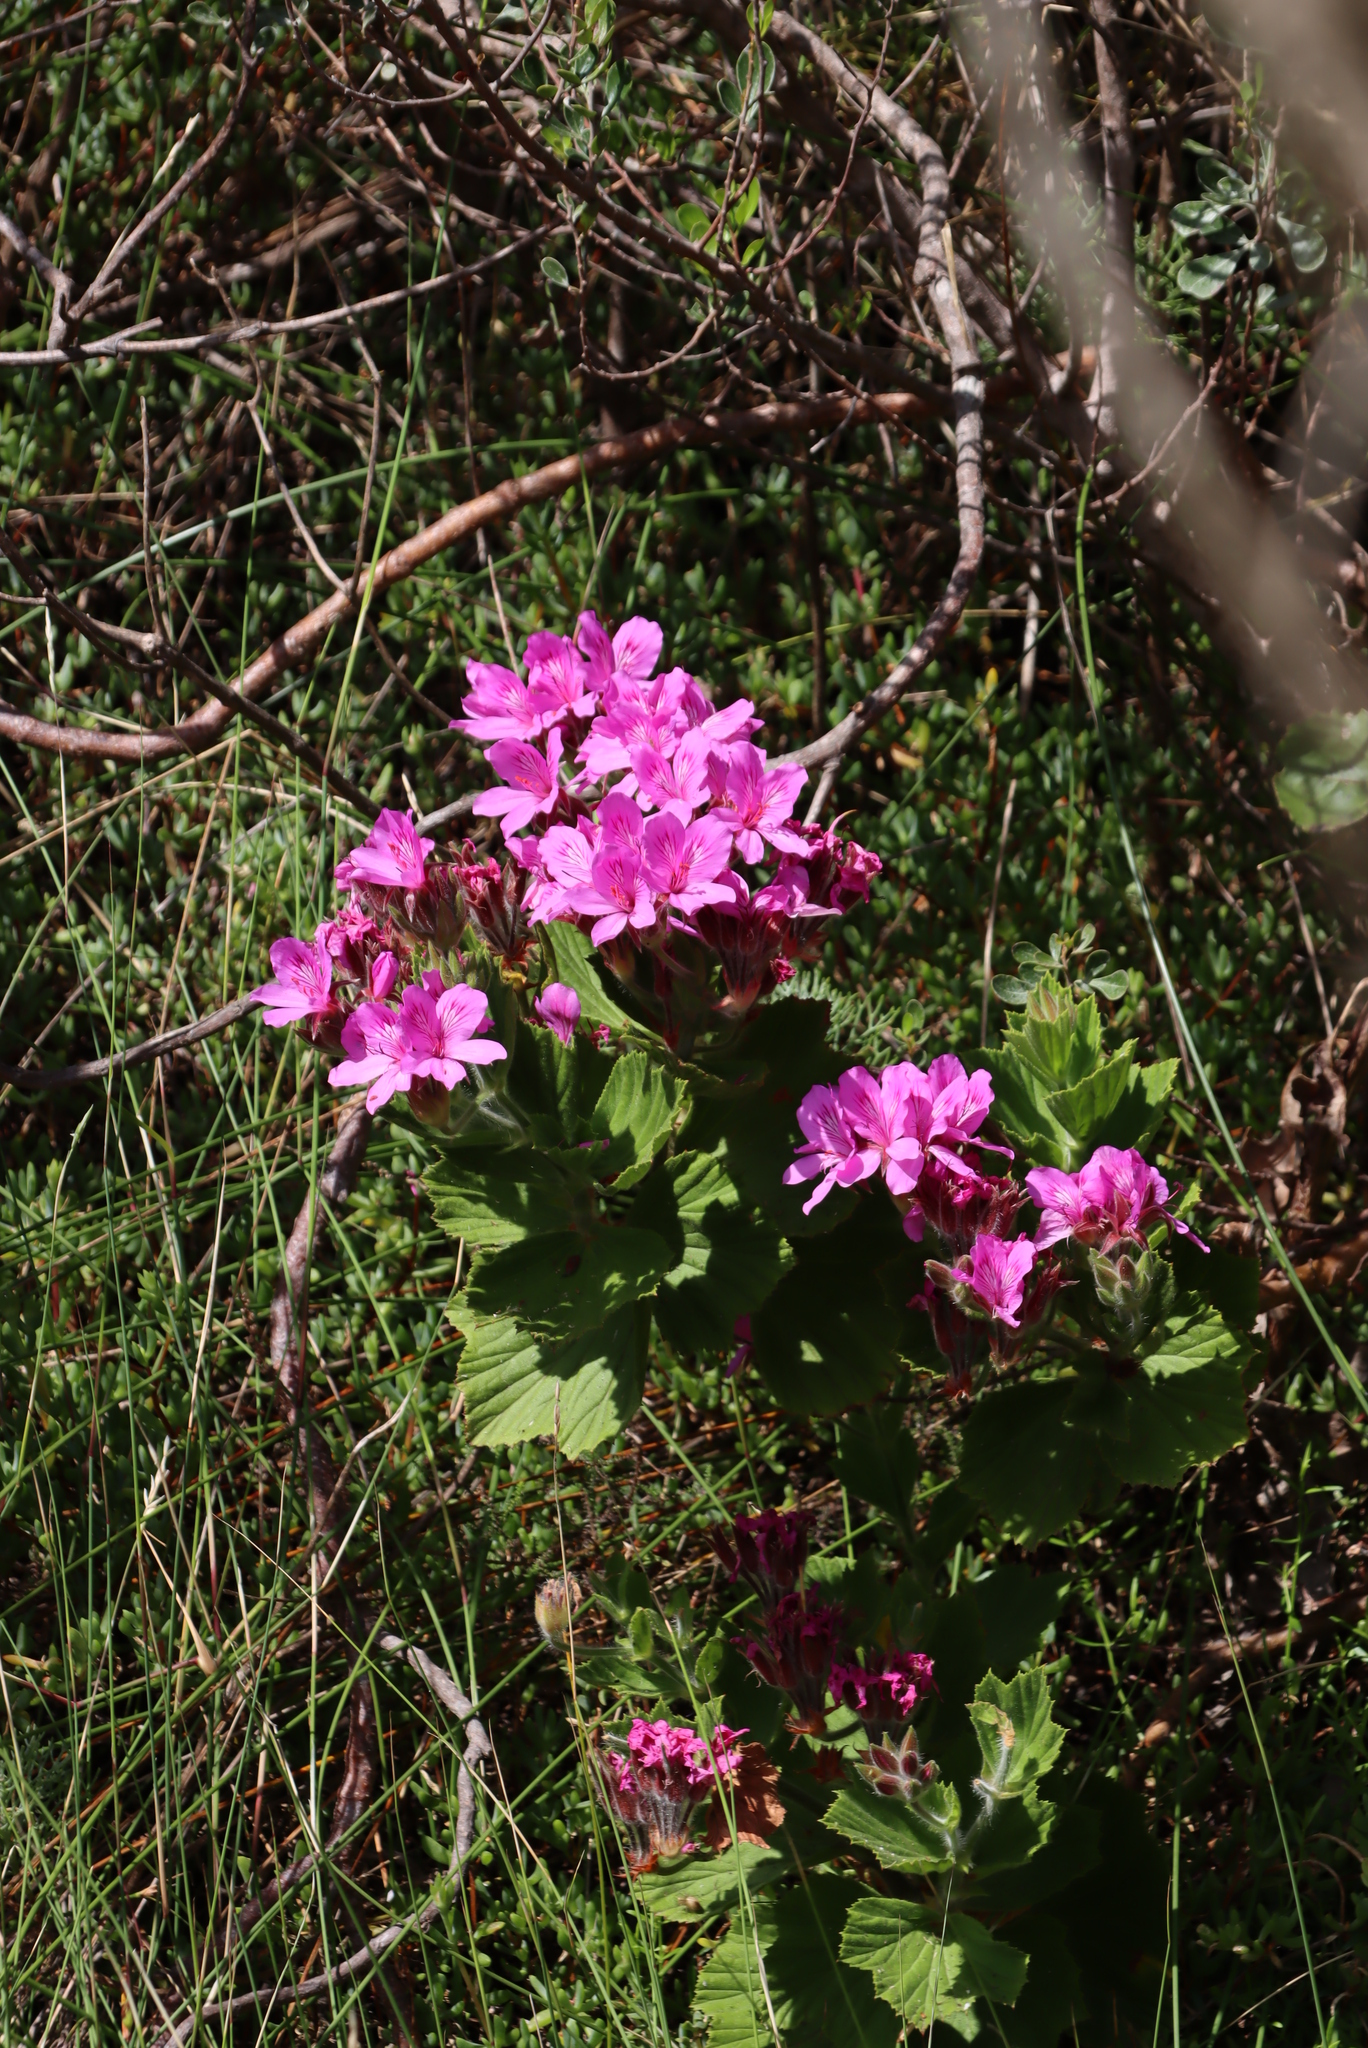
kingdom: Plantae
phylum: Tracheophyta
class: Magnoliopsida
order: Geraniales
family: Geraniaceae
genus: Pelargonium
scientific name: Pelargonium cucullatum
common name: Tree pelargonium
